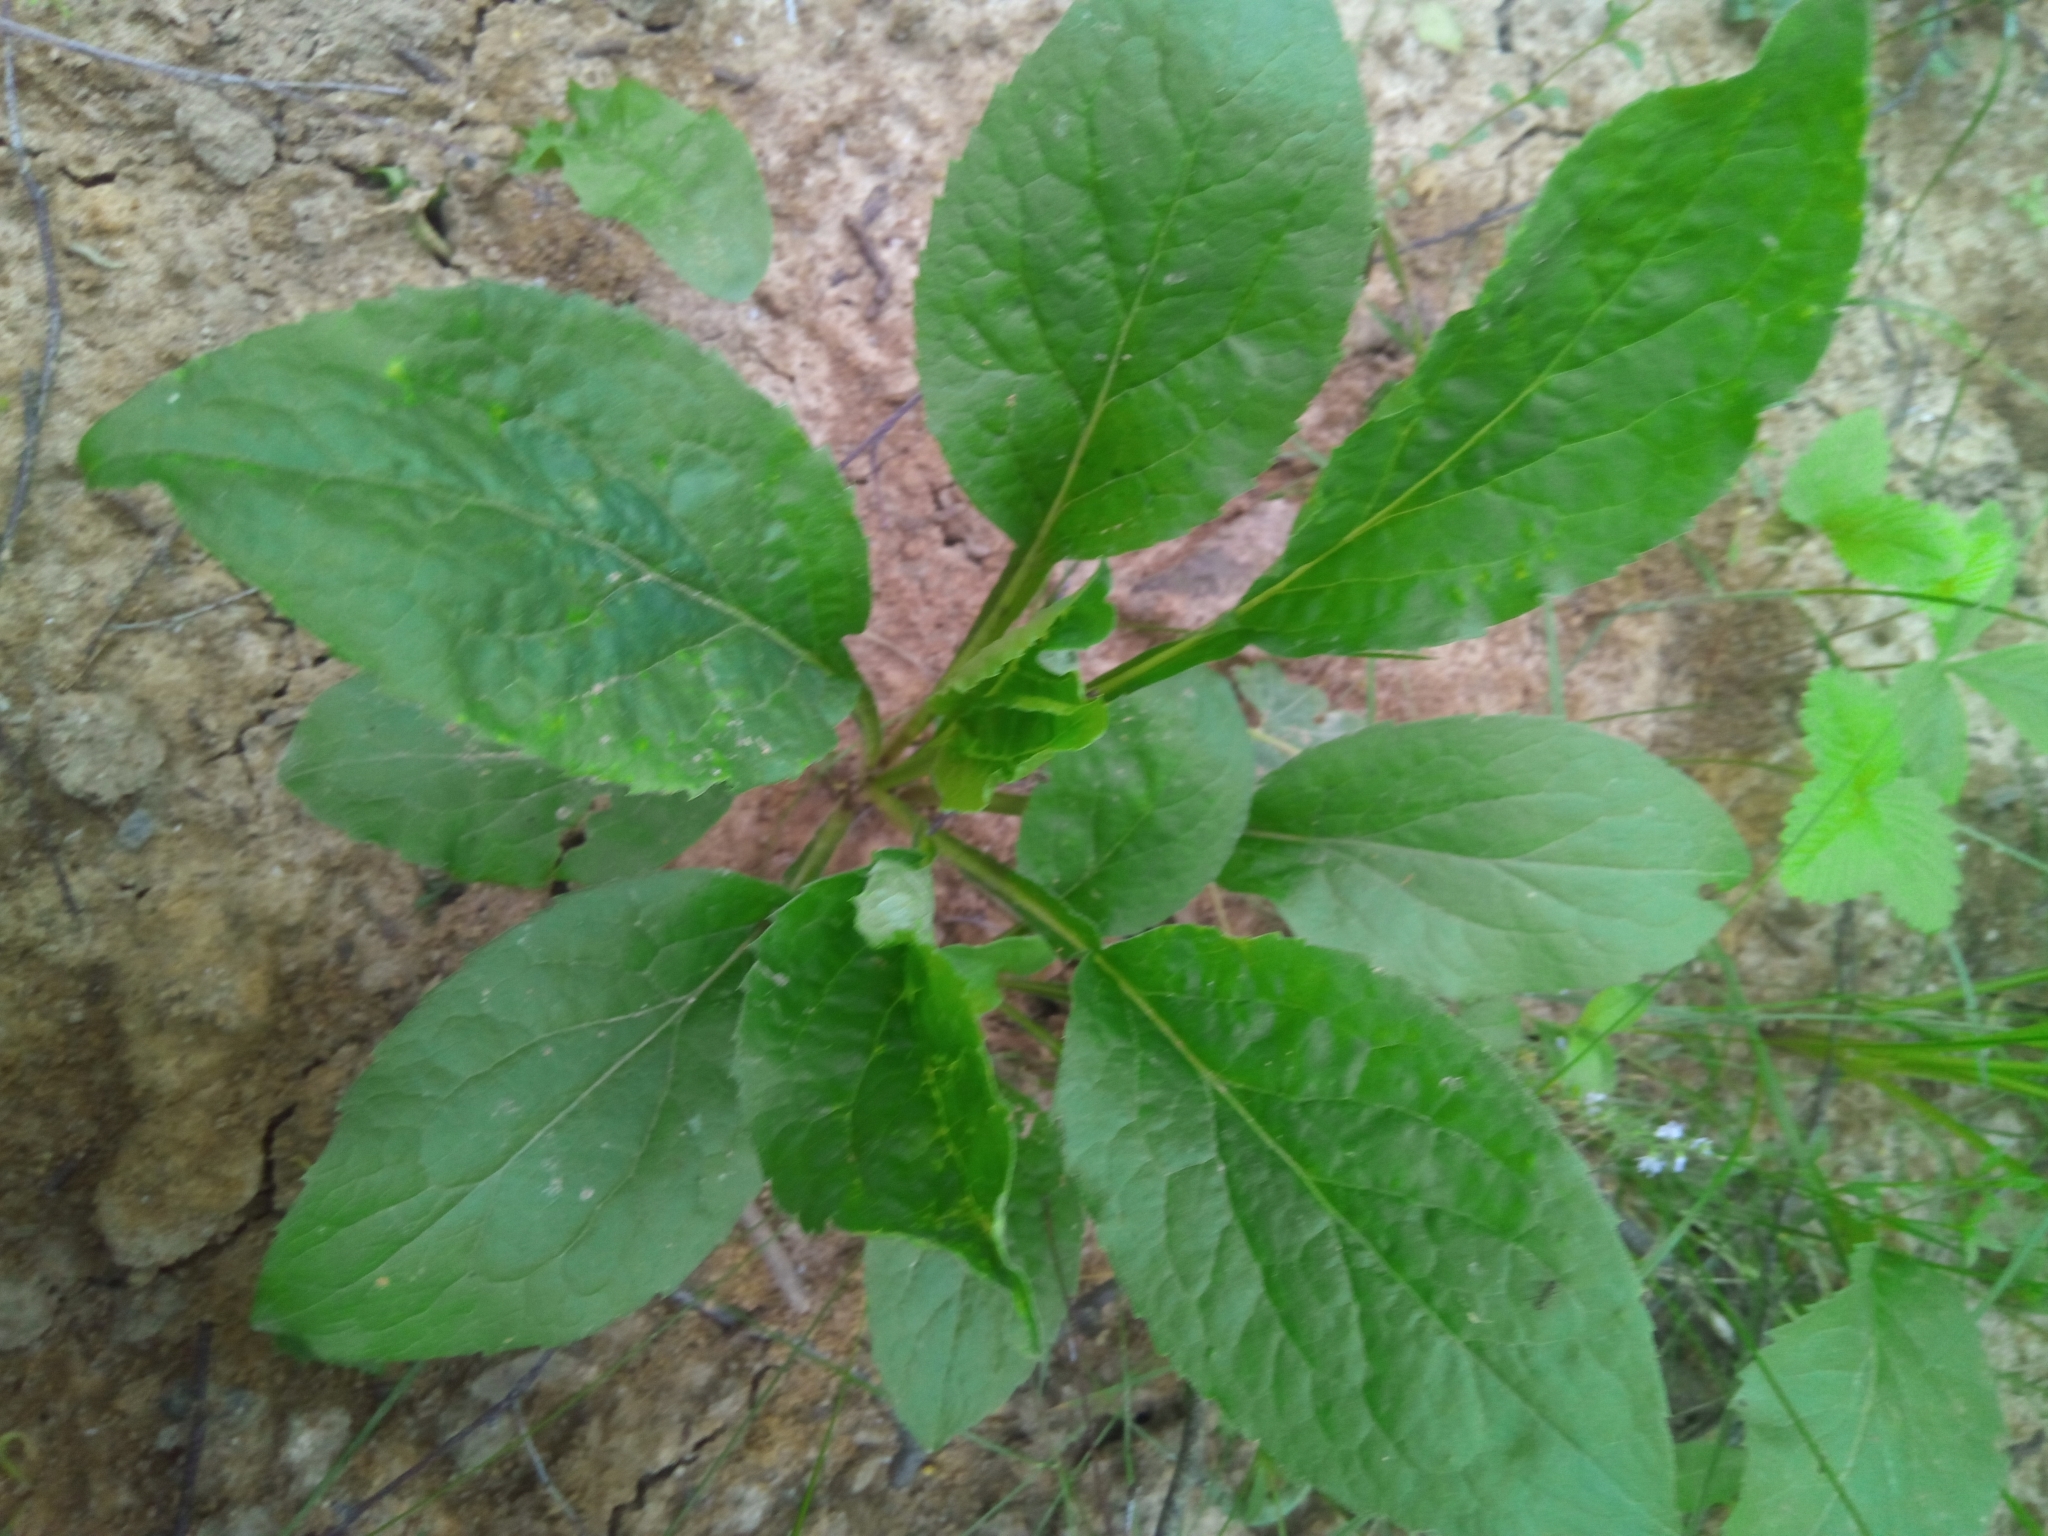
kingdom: Plantae
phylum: Tracheophyta
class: Magnoliopsida
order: Asterales
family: Asteraceae
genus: Solidago
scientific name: Solidago virgaurea
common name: Goldenrod
